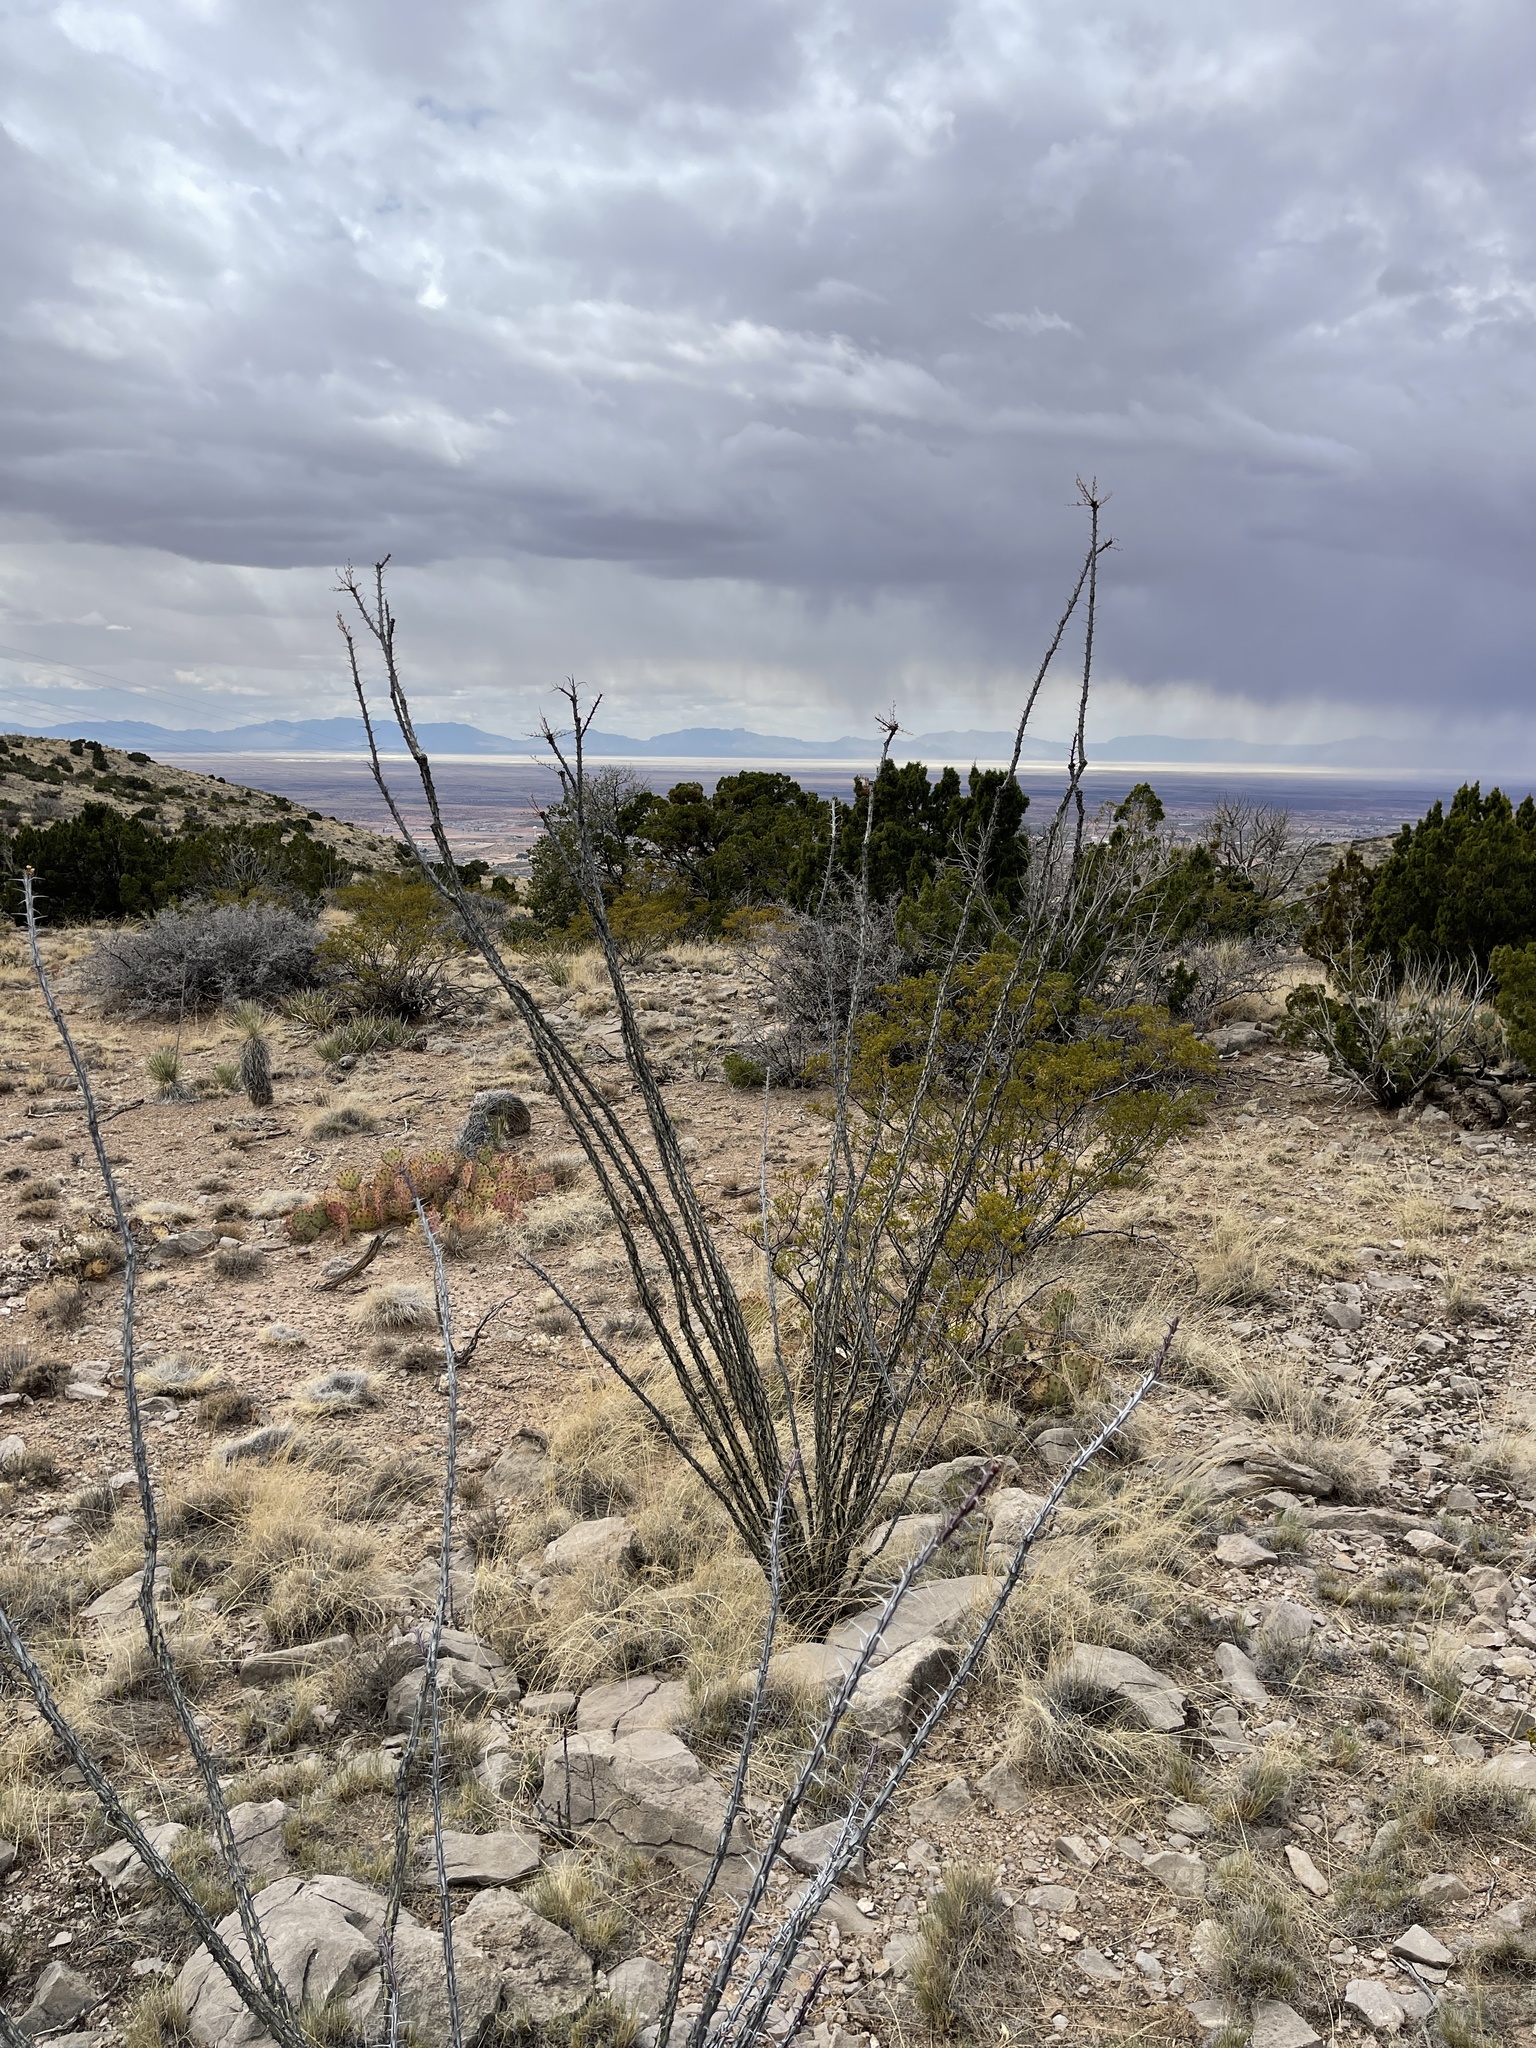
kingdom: Plantae
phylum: Tracheophyta
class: Magnoliopsida
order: Ericales
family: Fouquieriaceae
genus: Fouquieria
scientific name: Fouquieria splendens
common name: Vine-cactus
